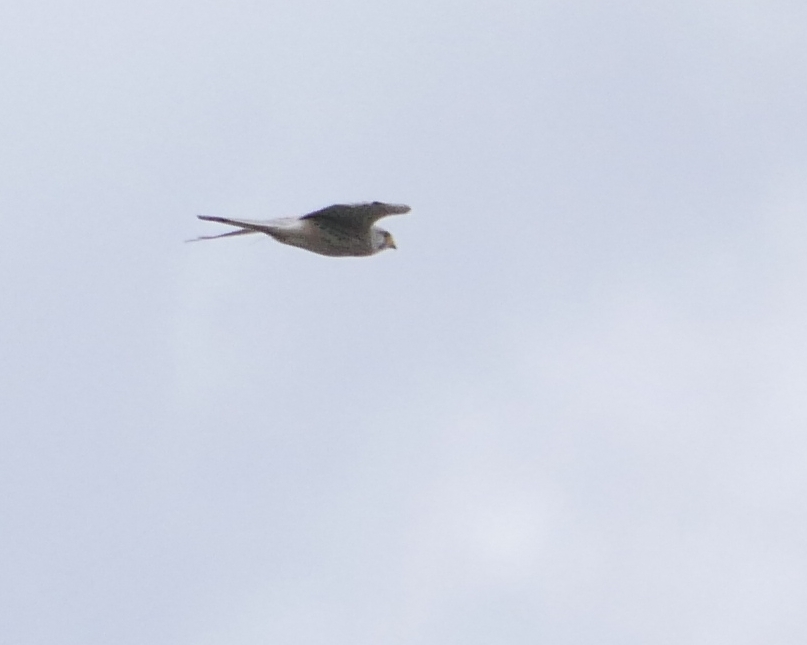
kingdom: Animalia
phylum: Chordata
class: Aves
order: Falconiformes
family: Falconidae
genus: Falco
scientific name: Falco tinnunculus
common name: Common kestrel
